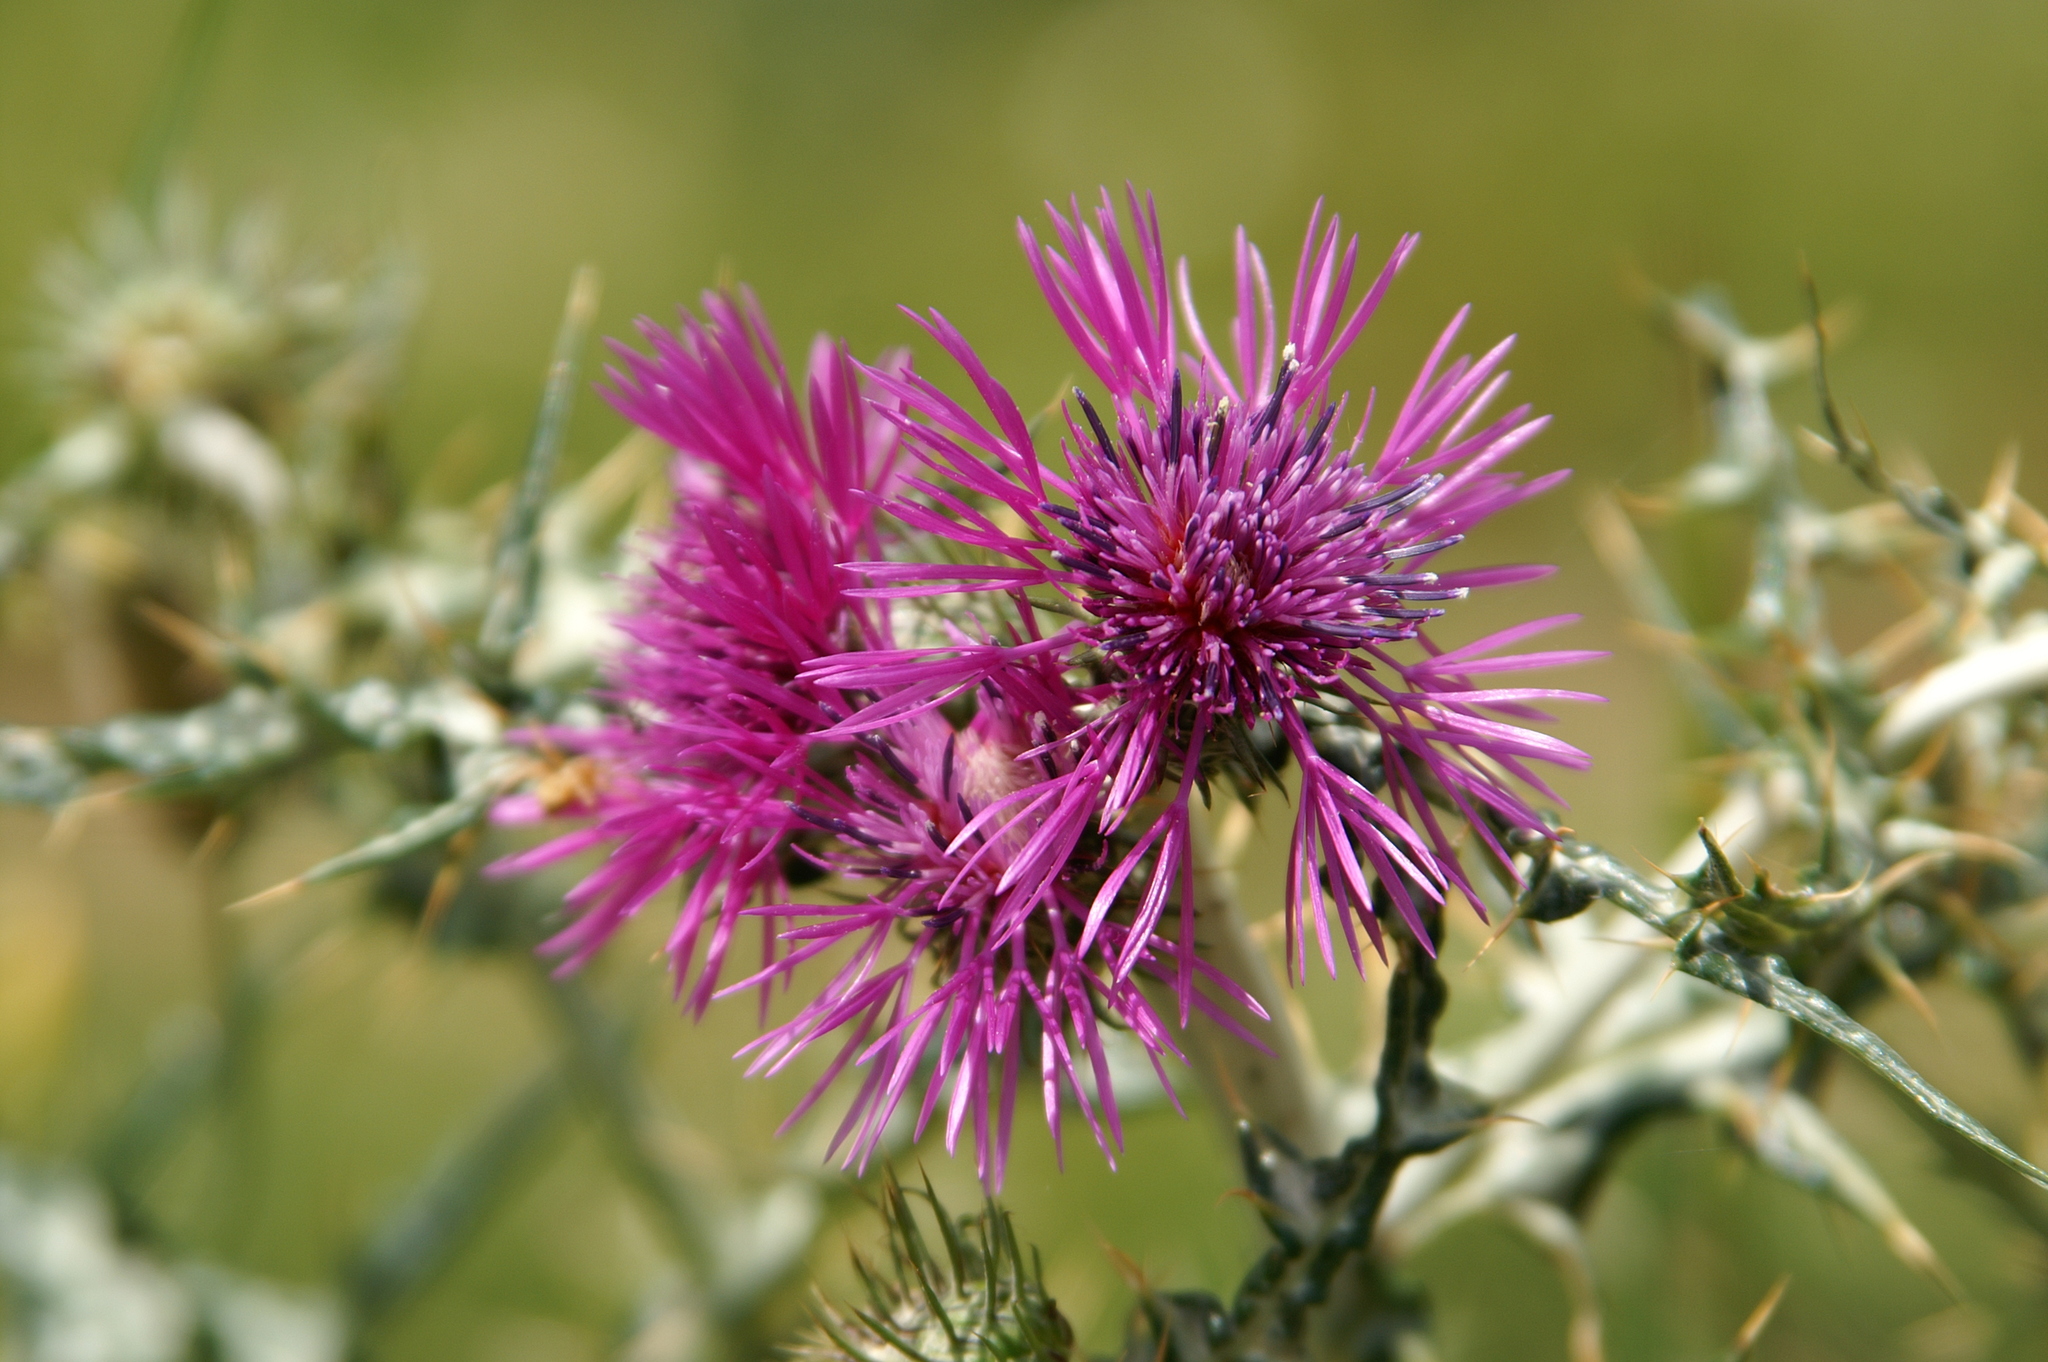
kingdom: Plantae
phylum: Tracheophyta
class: Magnoliopsida
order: Asterales
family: Asteraceae
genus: Galactites
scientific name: Galactites tomentosa
